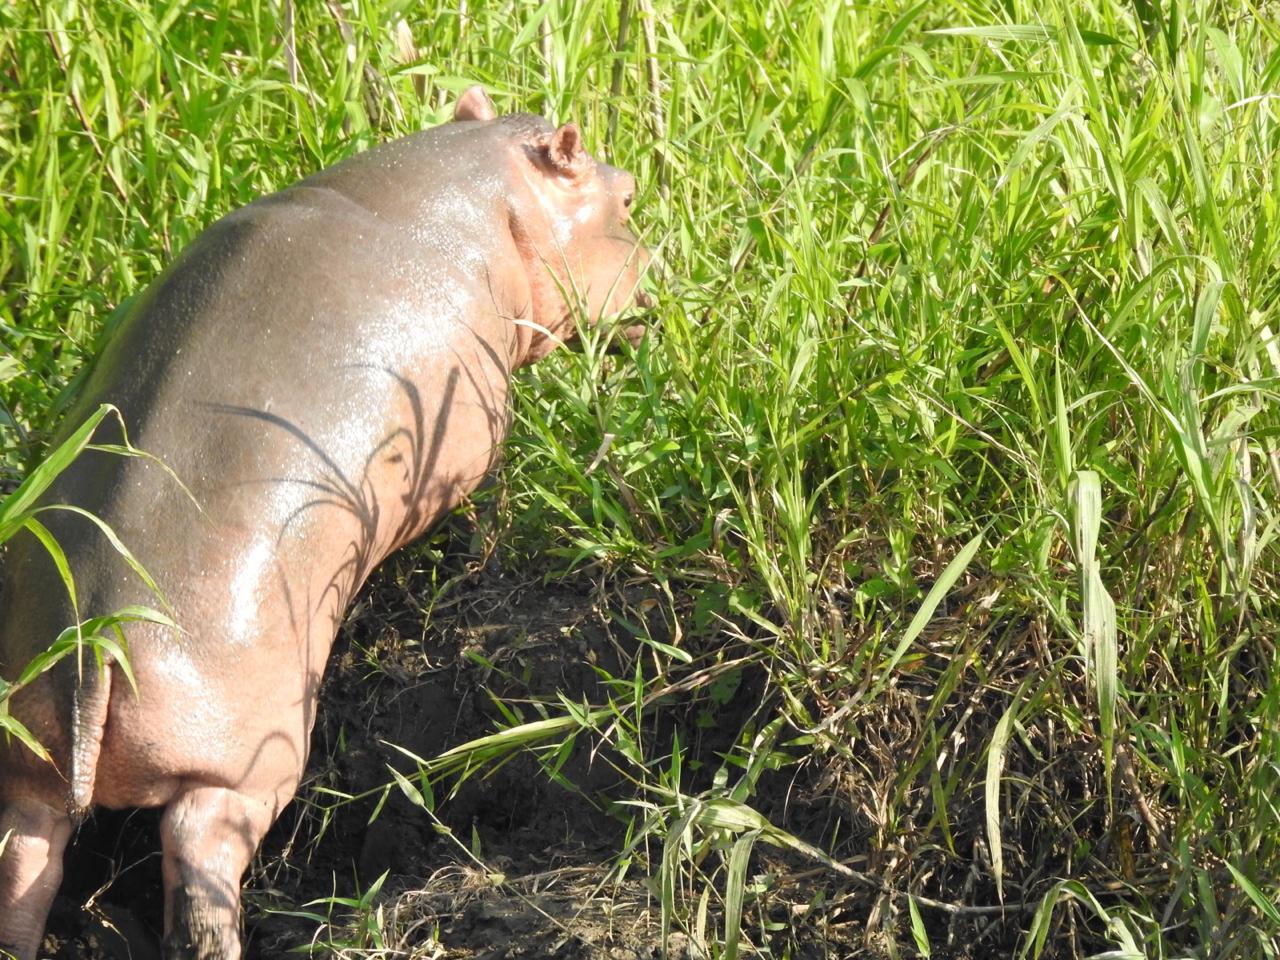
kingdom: Animalia
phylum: Chordata
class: Mammalia
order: Artiodactyla
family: Hippopotamidae
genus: Hippopotamus
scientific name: Hippopotamus amphibius
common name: Common hippopotamus
